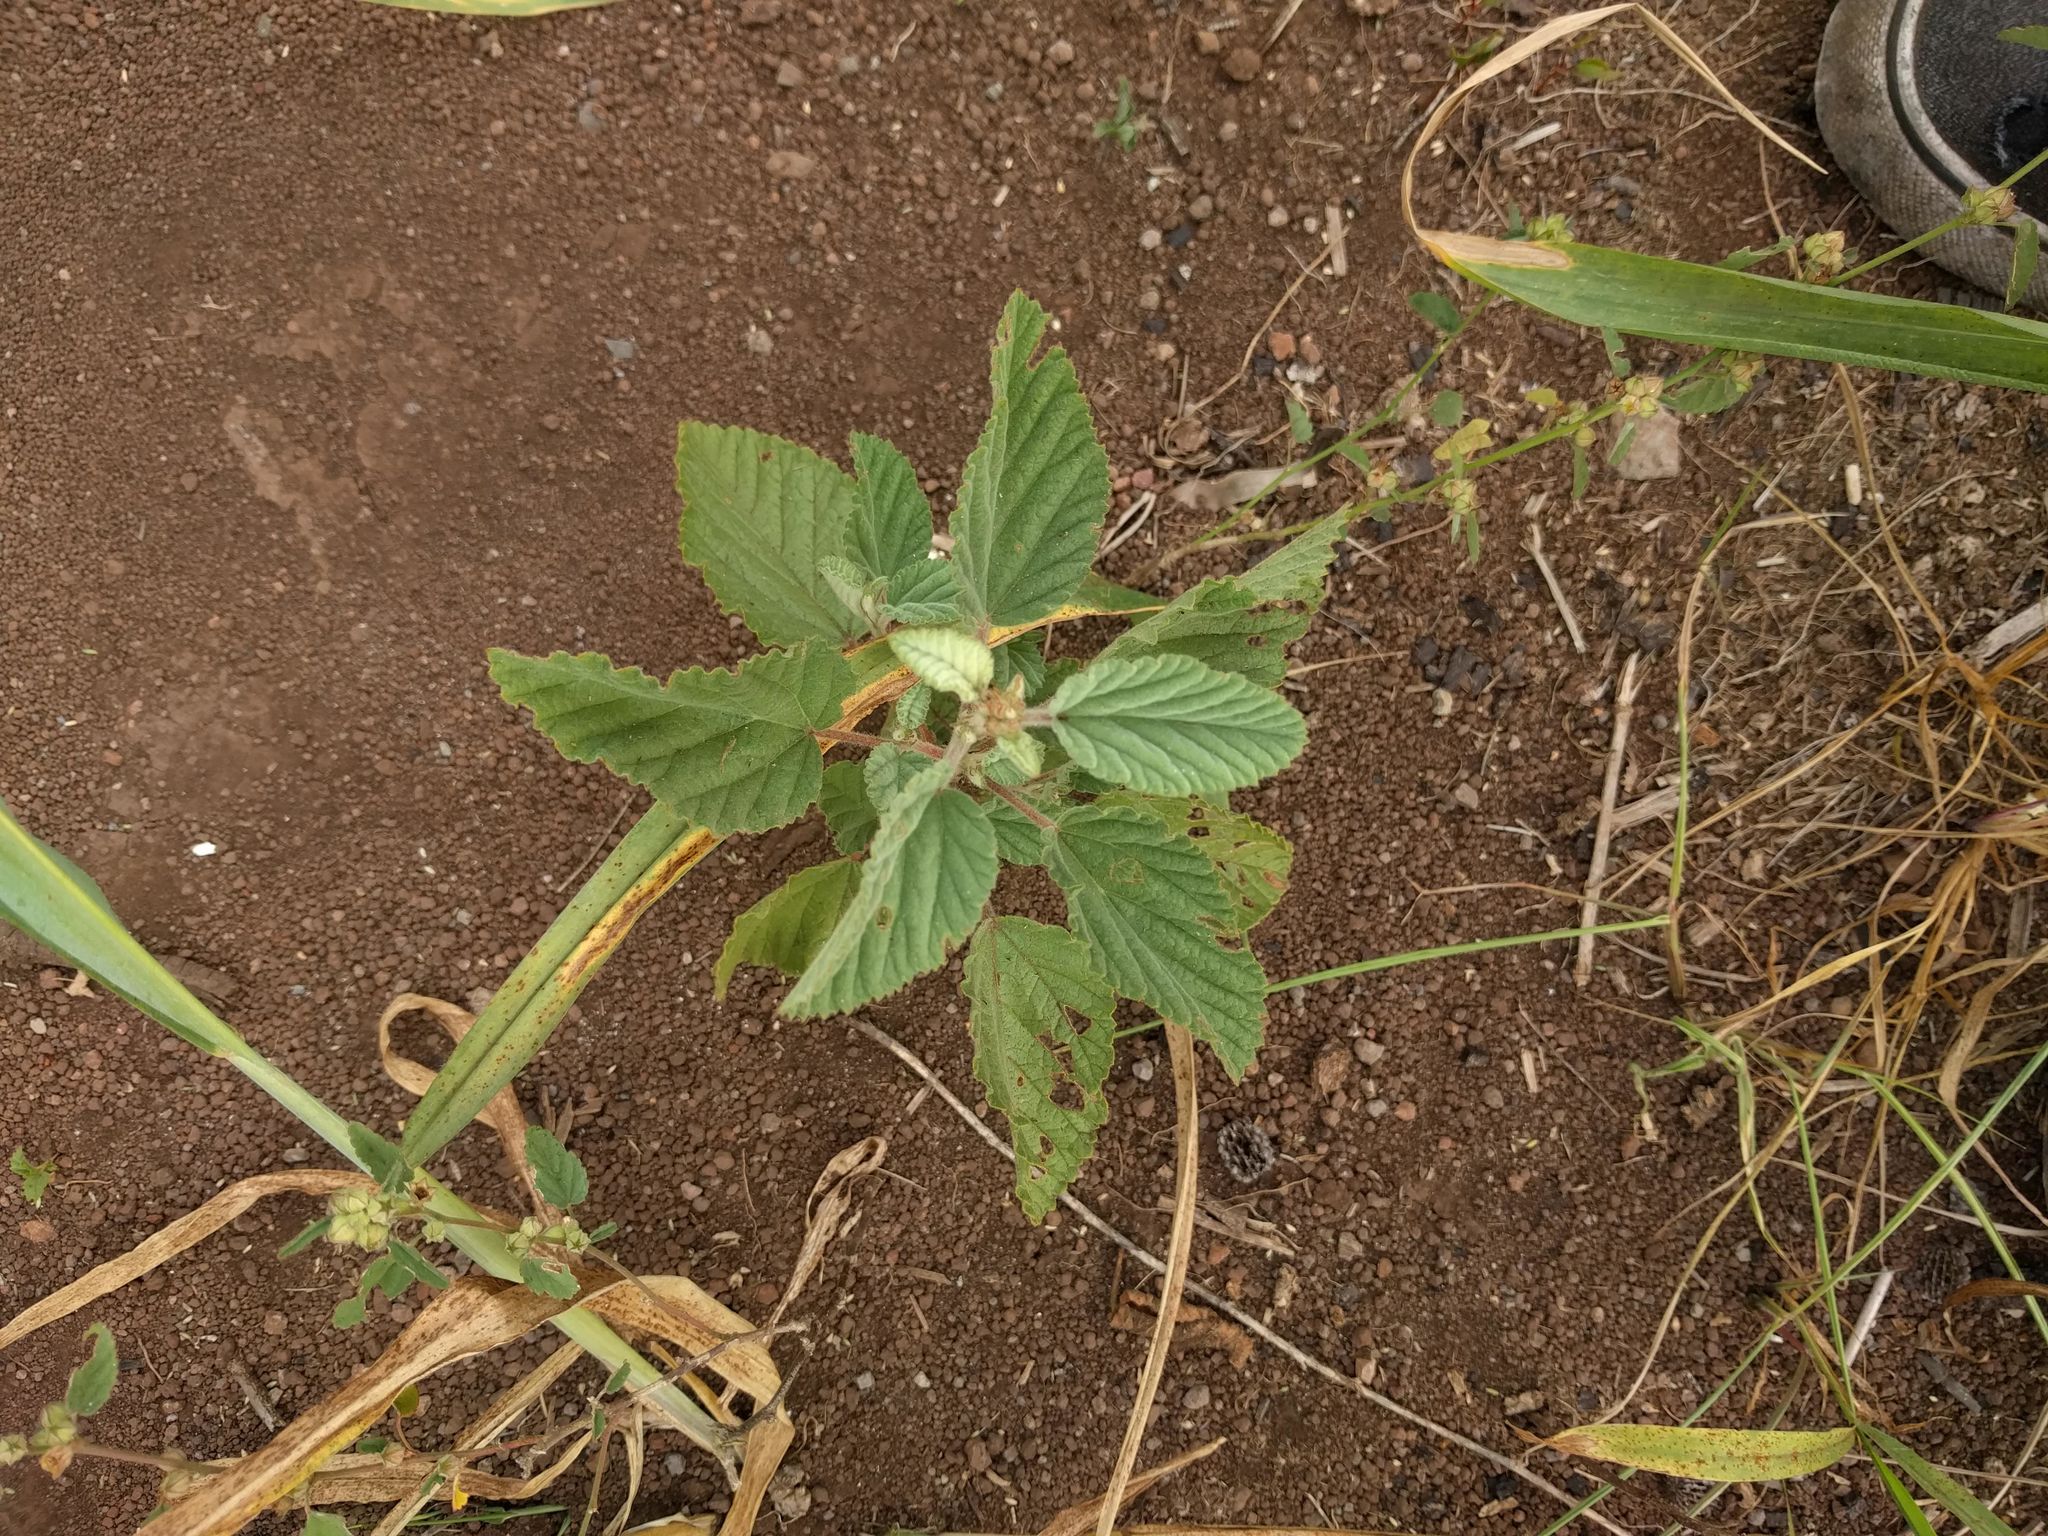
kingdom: Plantae
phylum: Tracheophyta
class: Magnoliopsida
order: Malvales
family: Malvaceae
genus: Waltheria
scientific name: Waltheria indica
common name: Leather-coat
